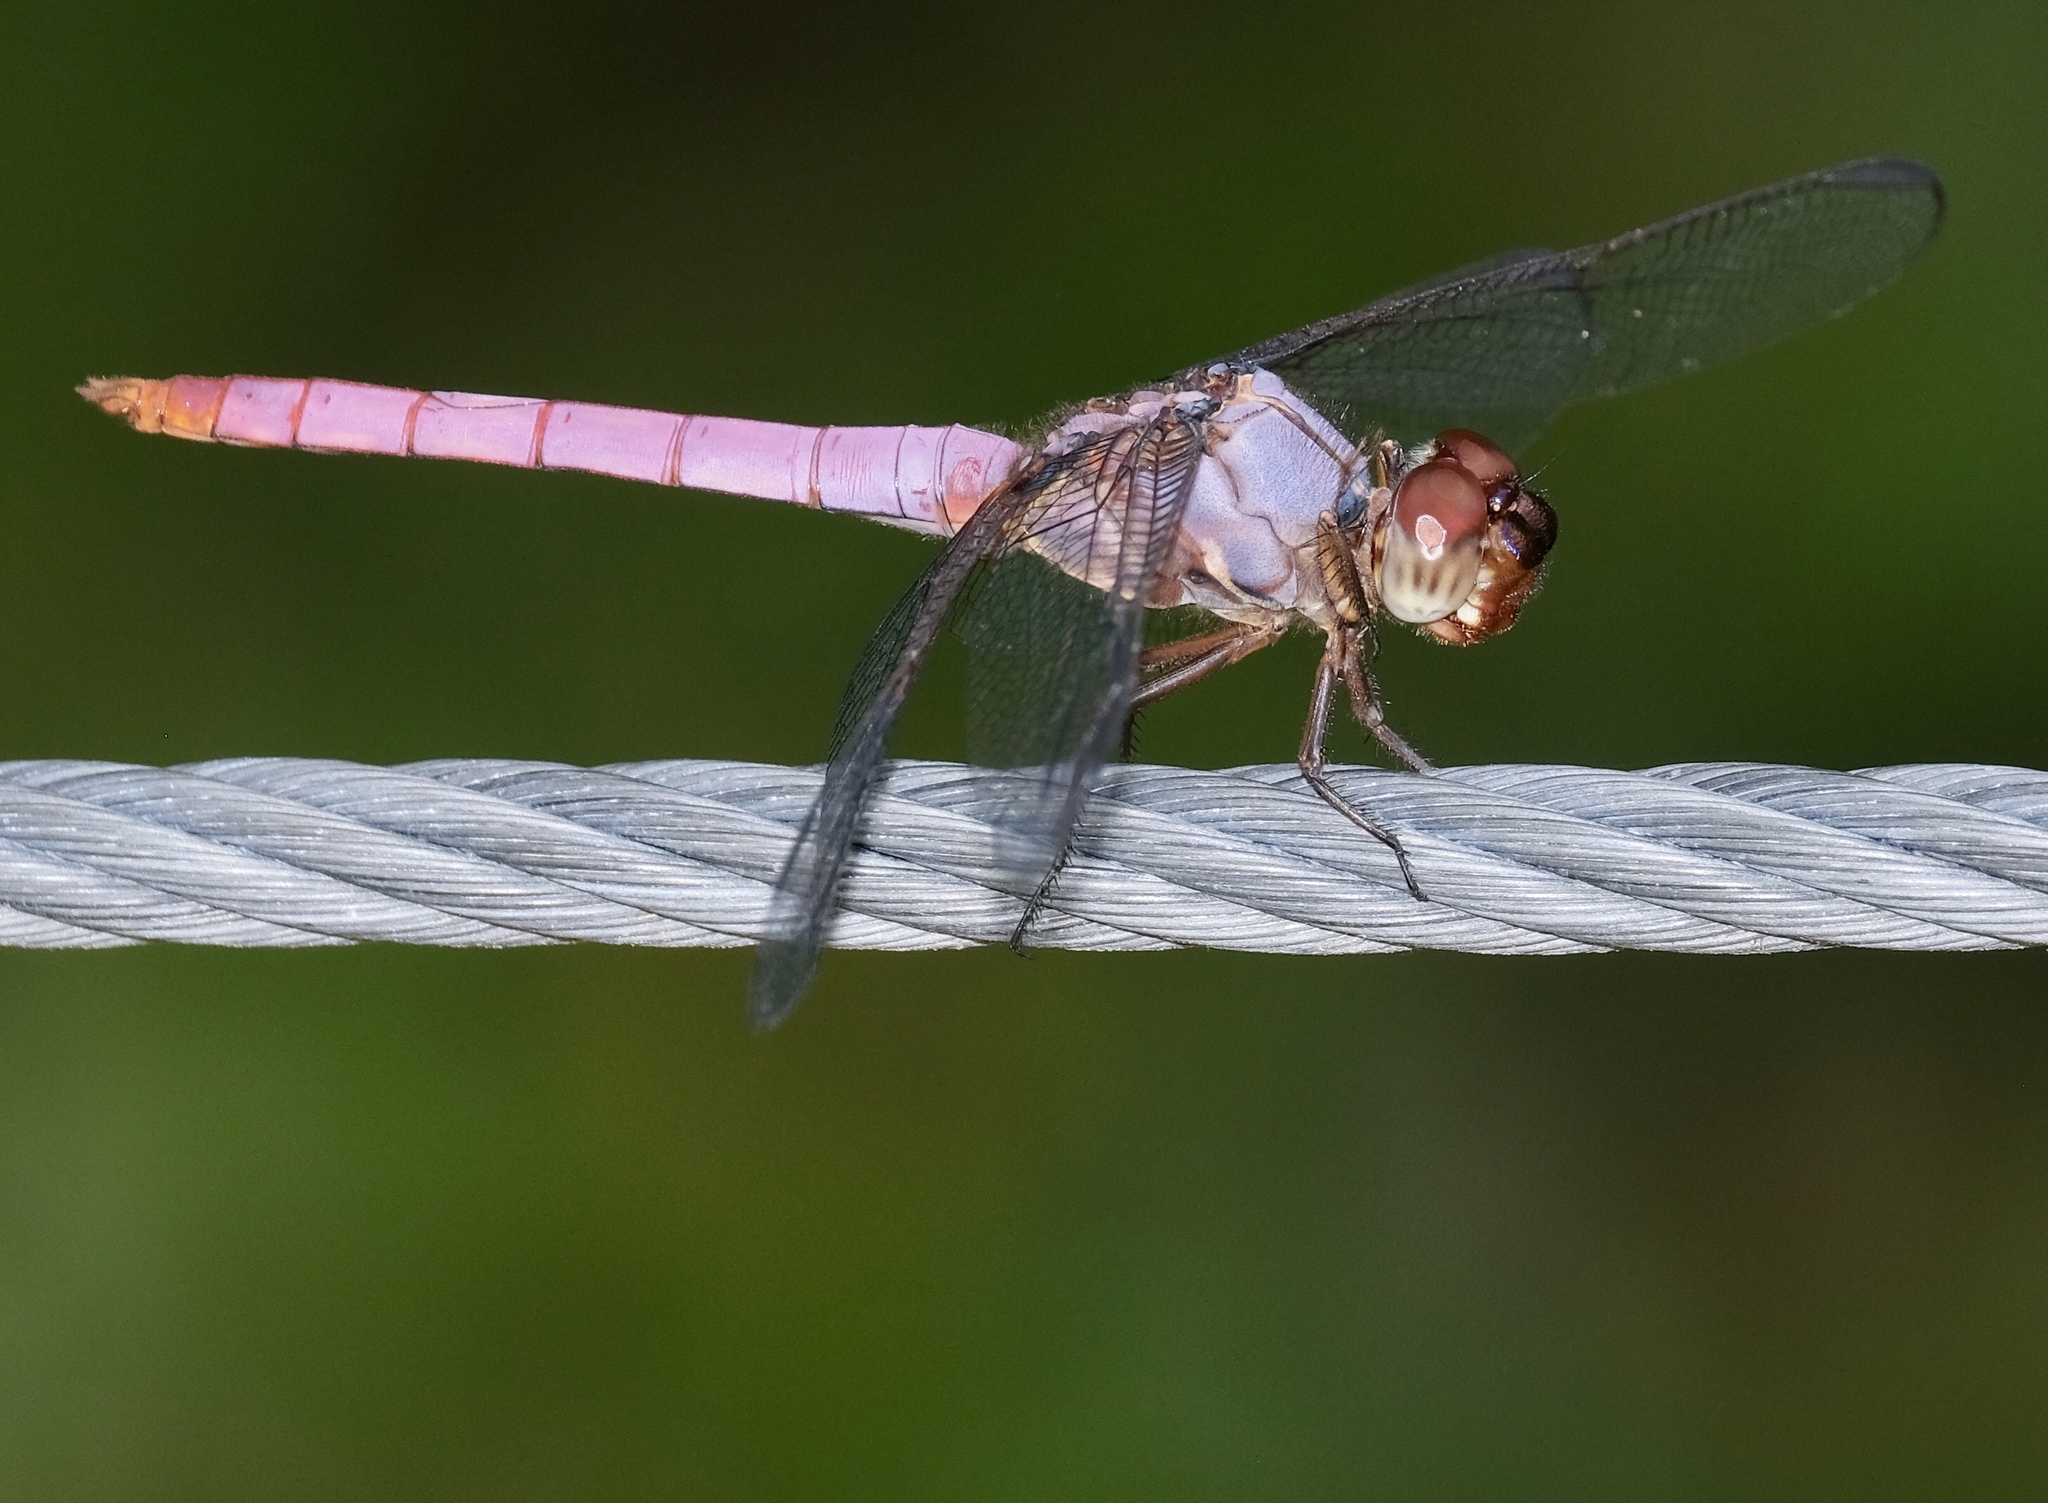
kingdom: Animalia
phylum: Arthropoda
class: Insecta
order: Odonata
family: Libellulidae
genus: Orthemis
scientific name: Orthemis ferruginea
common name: Roseate skimmer
